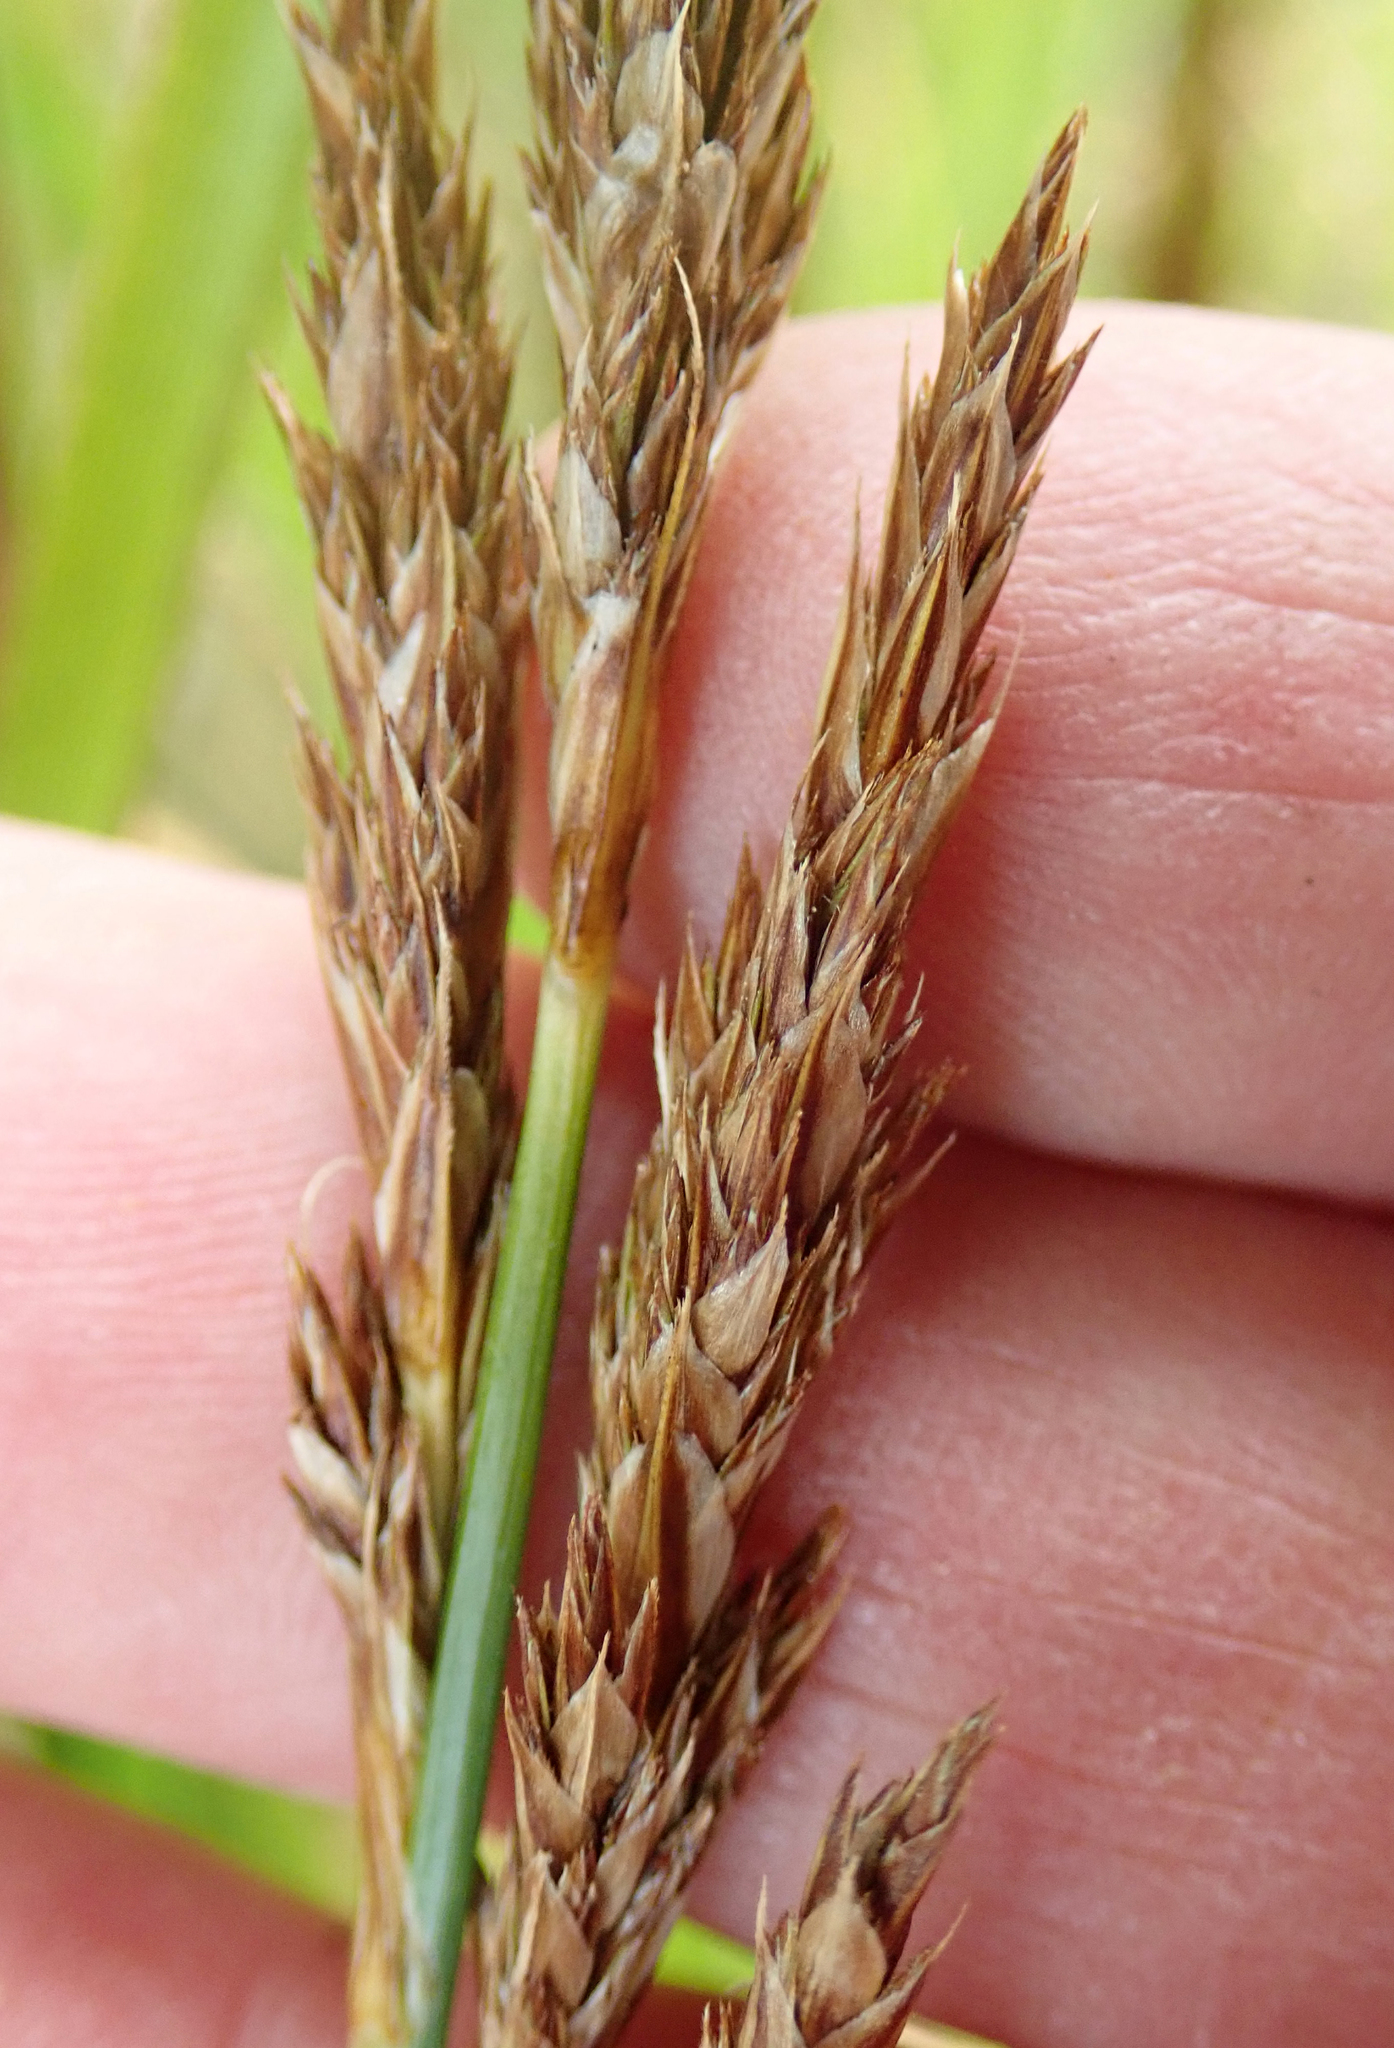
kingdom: Plantae
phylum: Tracheophyta
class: Liliopsida
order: Poales
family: Cyperaceae
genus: Carex
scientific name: Carex appressa
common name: Tussock sedge
